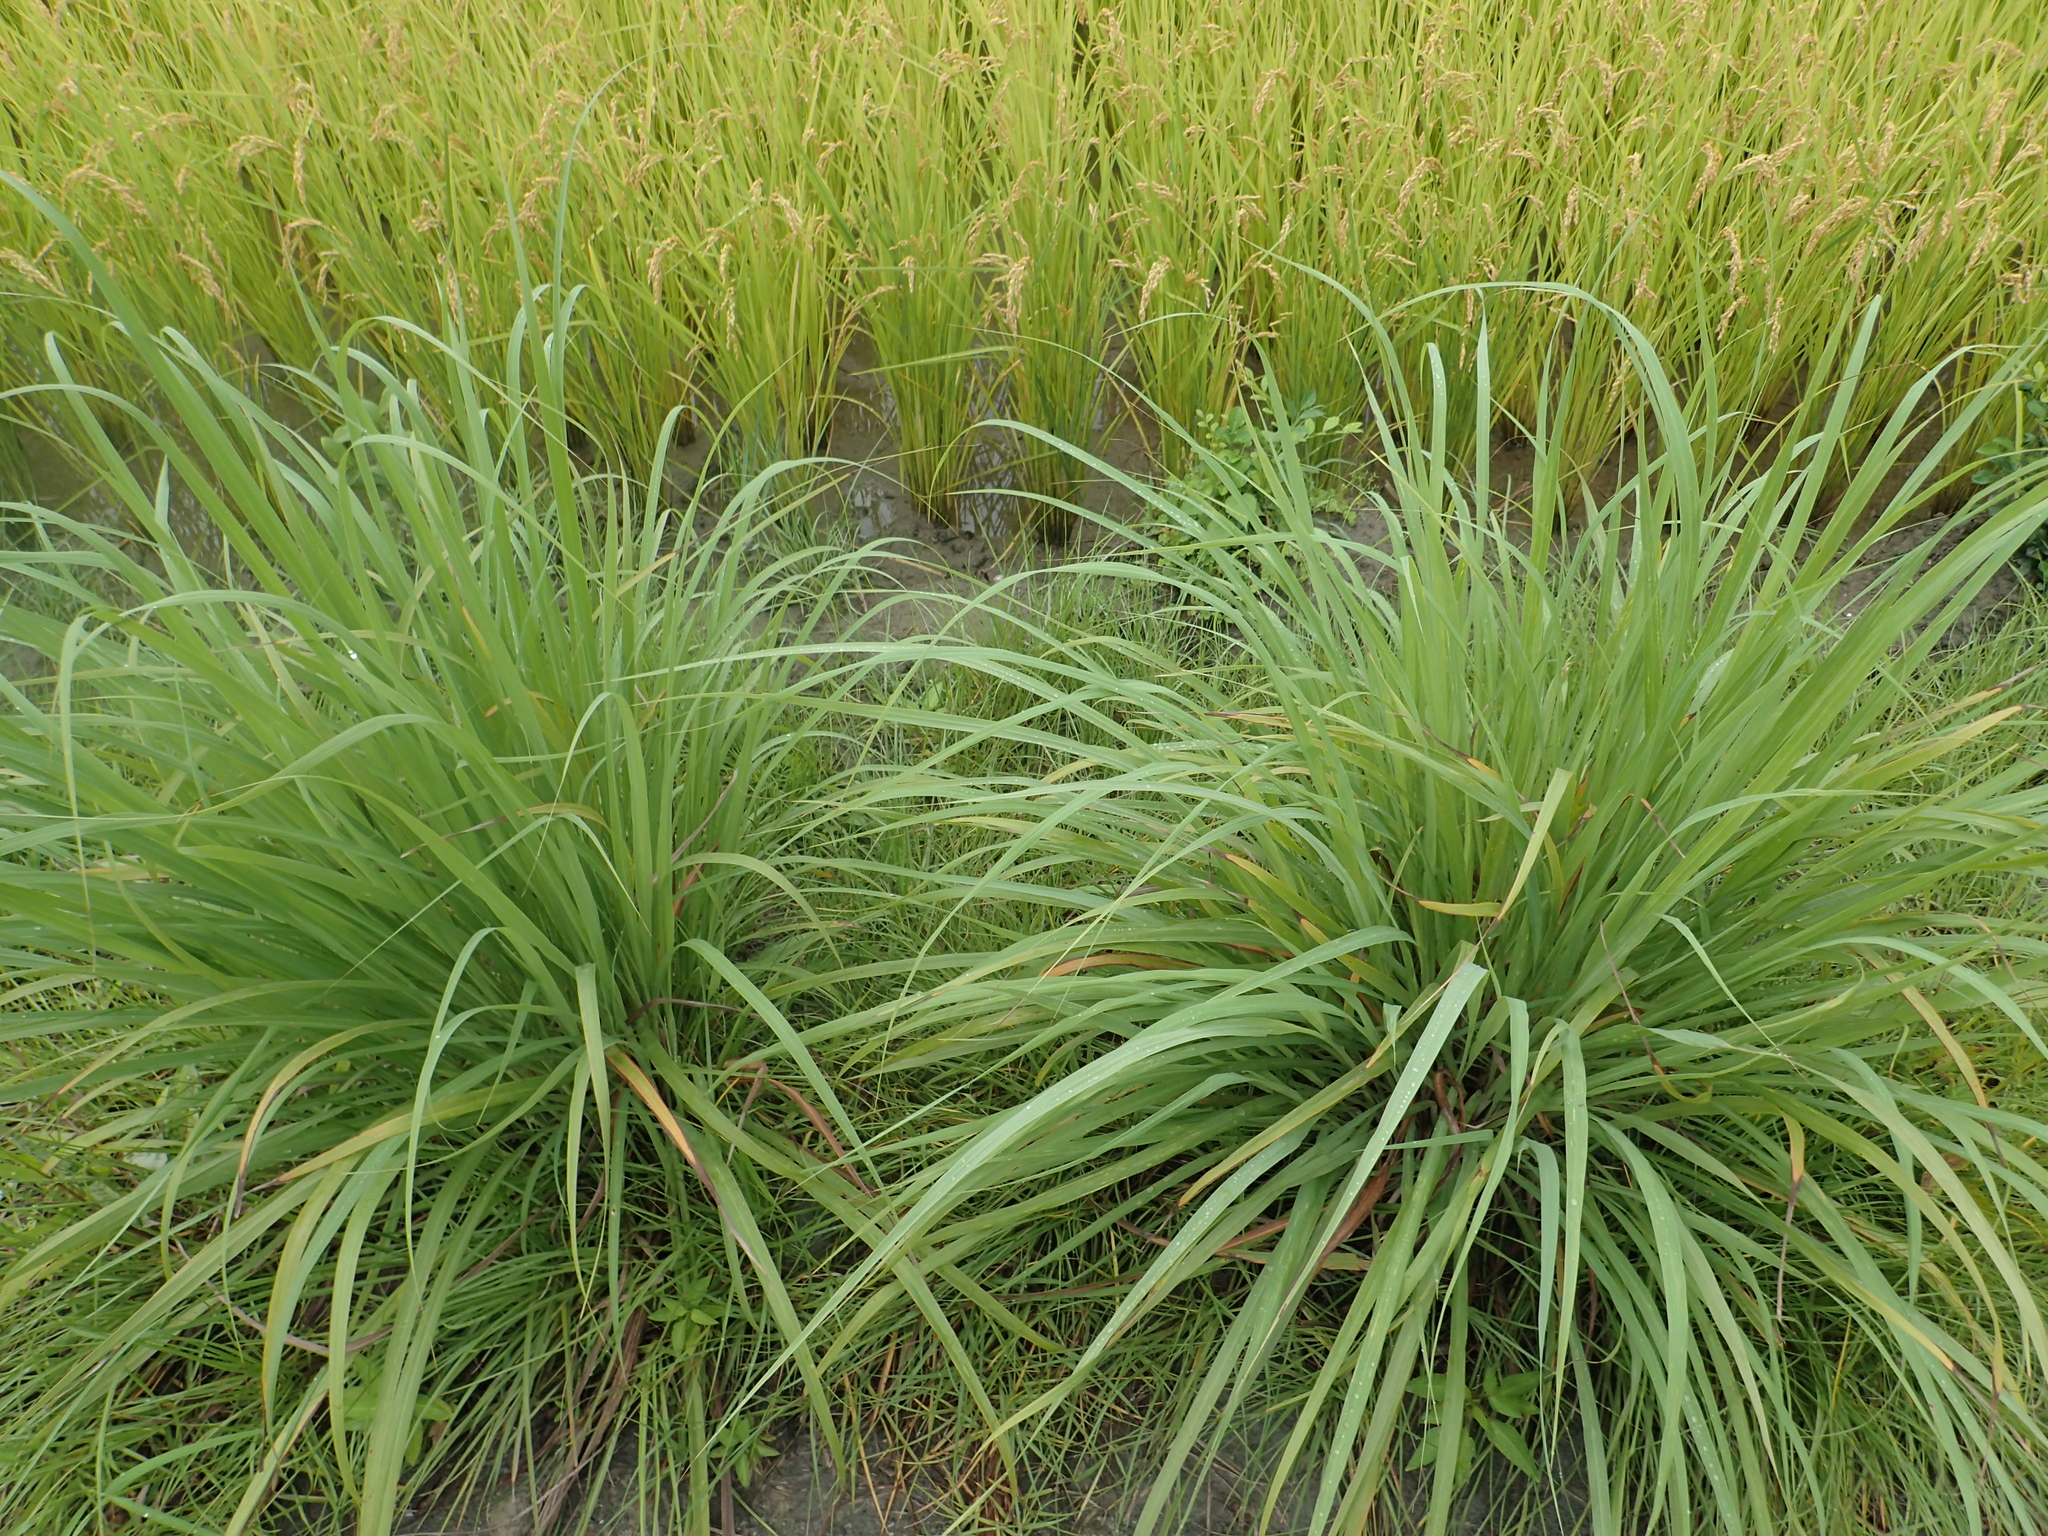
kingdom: Plantae
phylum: Tracheophyta
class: Liliopsida
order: Poales
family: Poaceae
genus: Cymbopogon
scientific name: Cymbopogon nardus
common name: Giant turpentine grass
